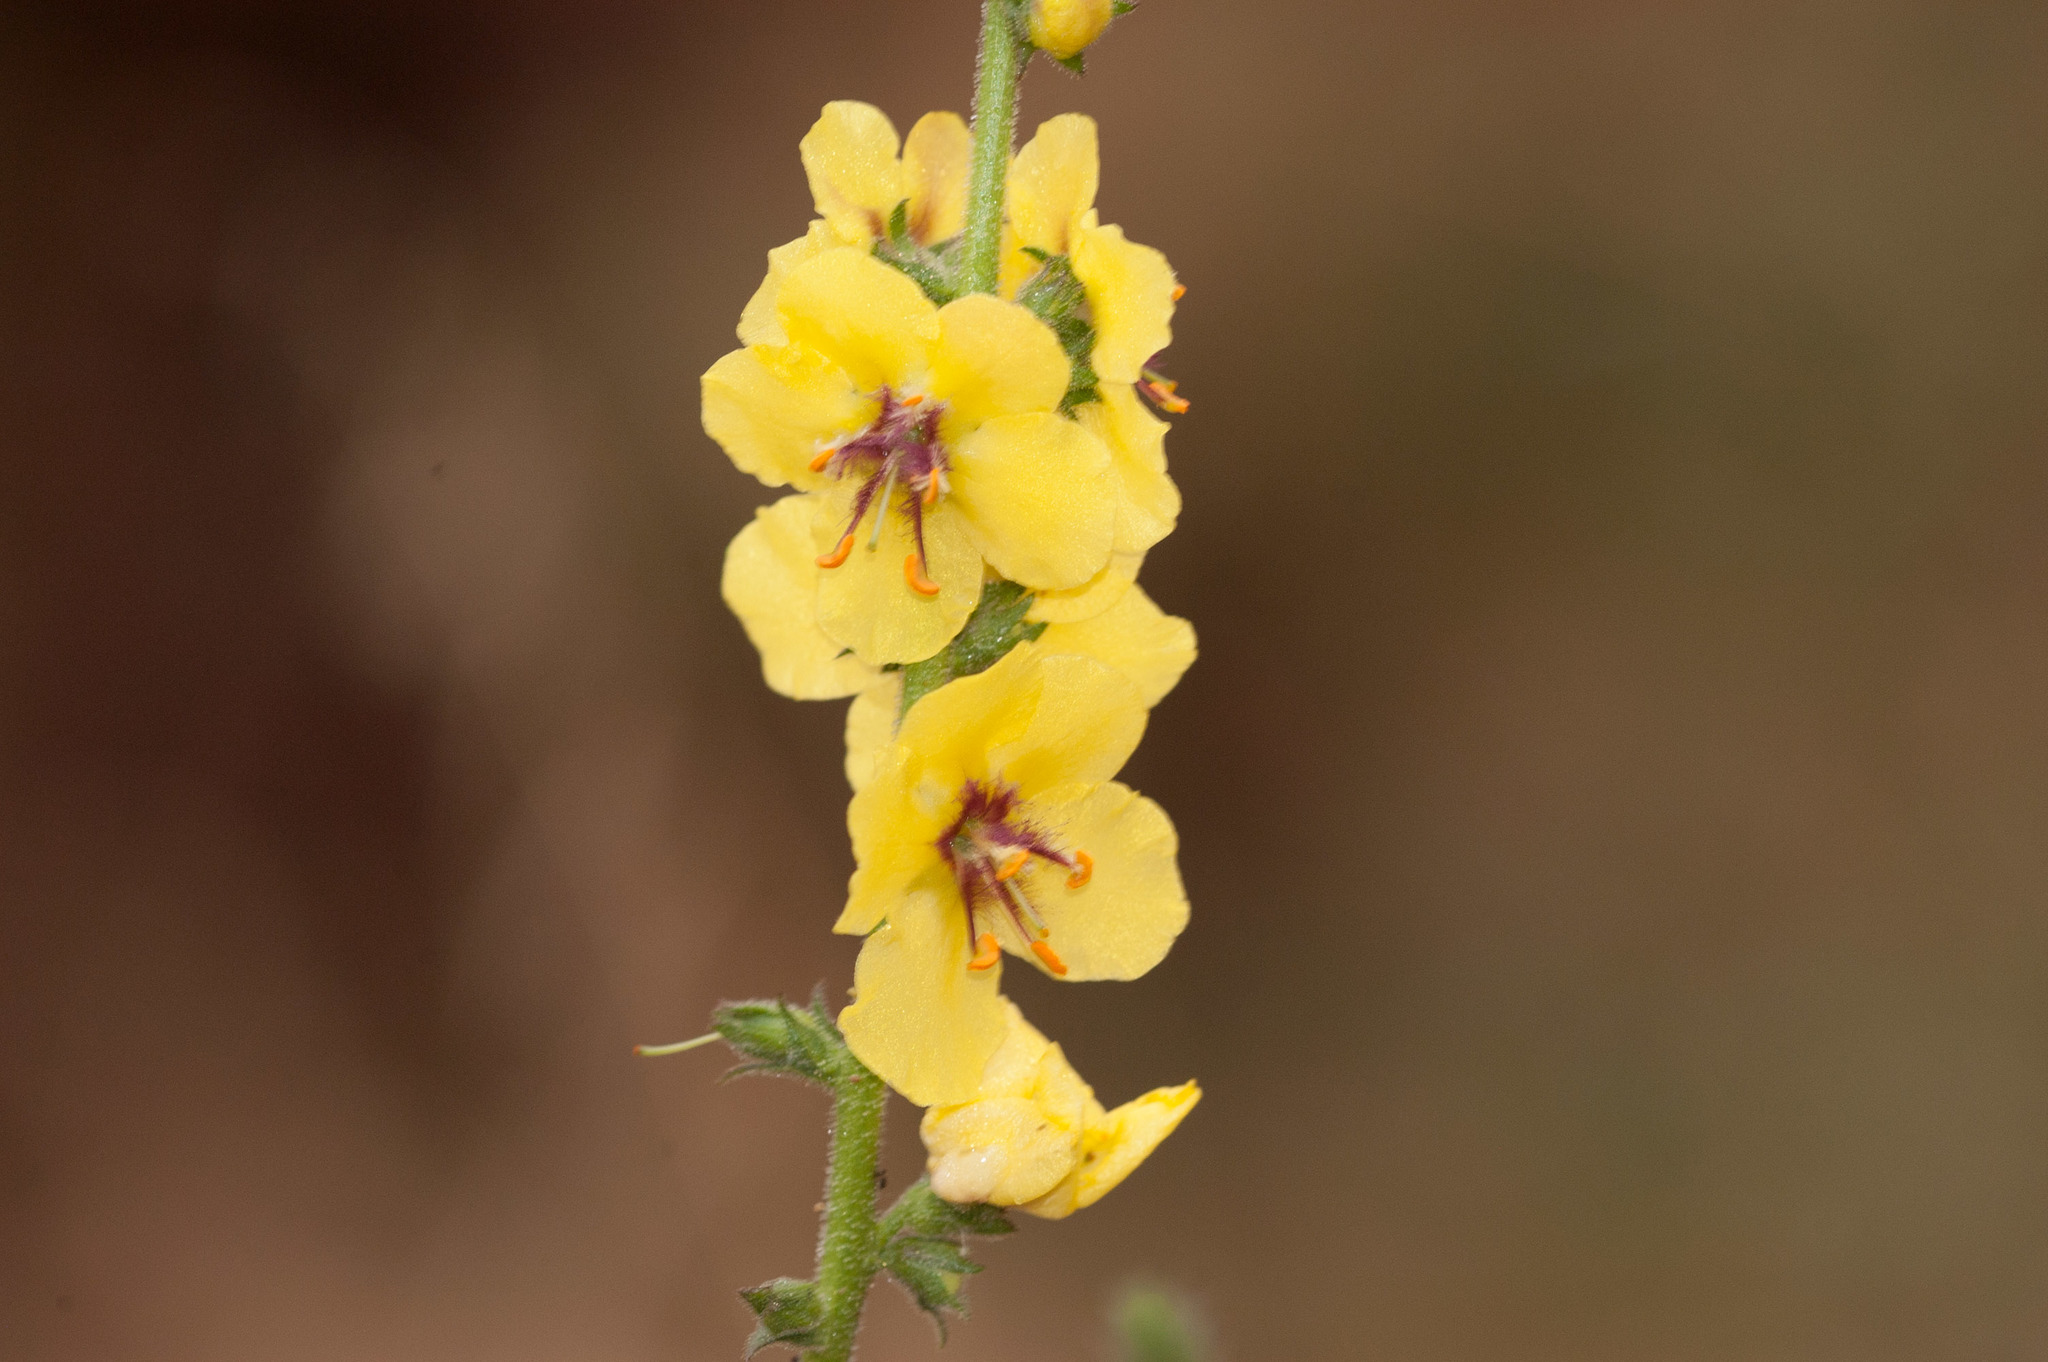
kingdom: Plantae
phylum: Tracheophyta
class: Magnoliopsida
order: Lamiales
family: Scrophulariaceae
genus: Verbascum
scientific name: Verbascum virgatum
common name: Twiggy mullein
